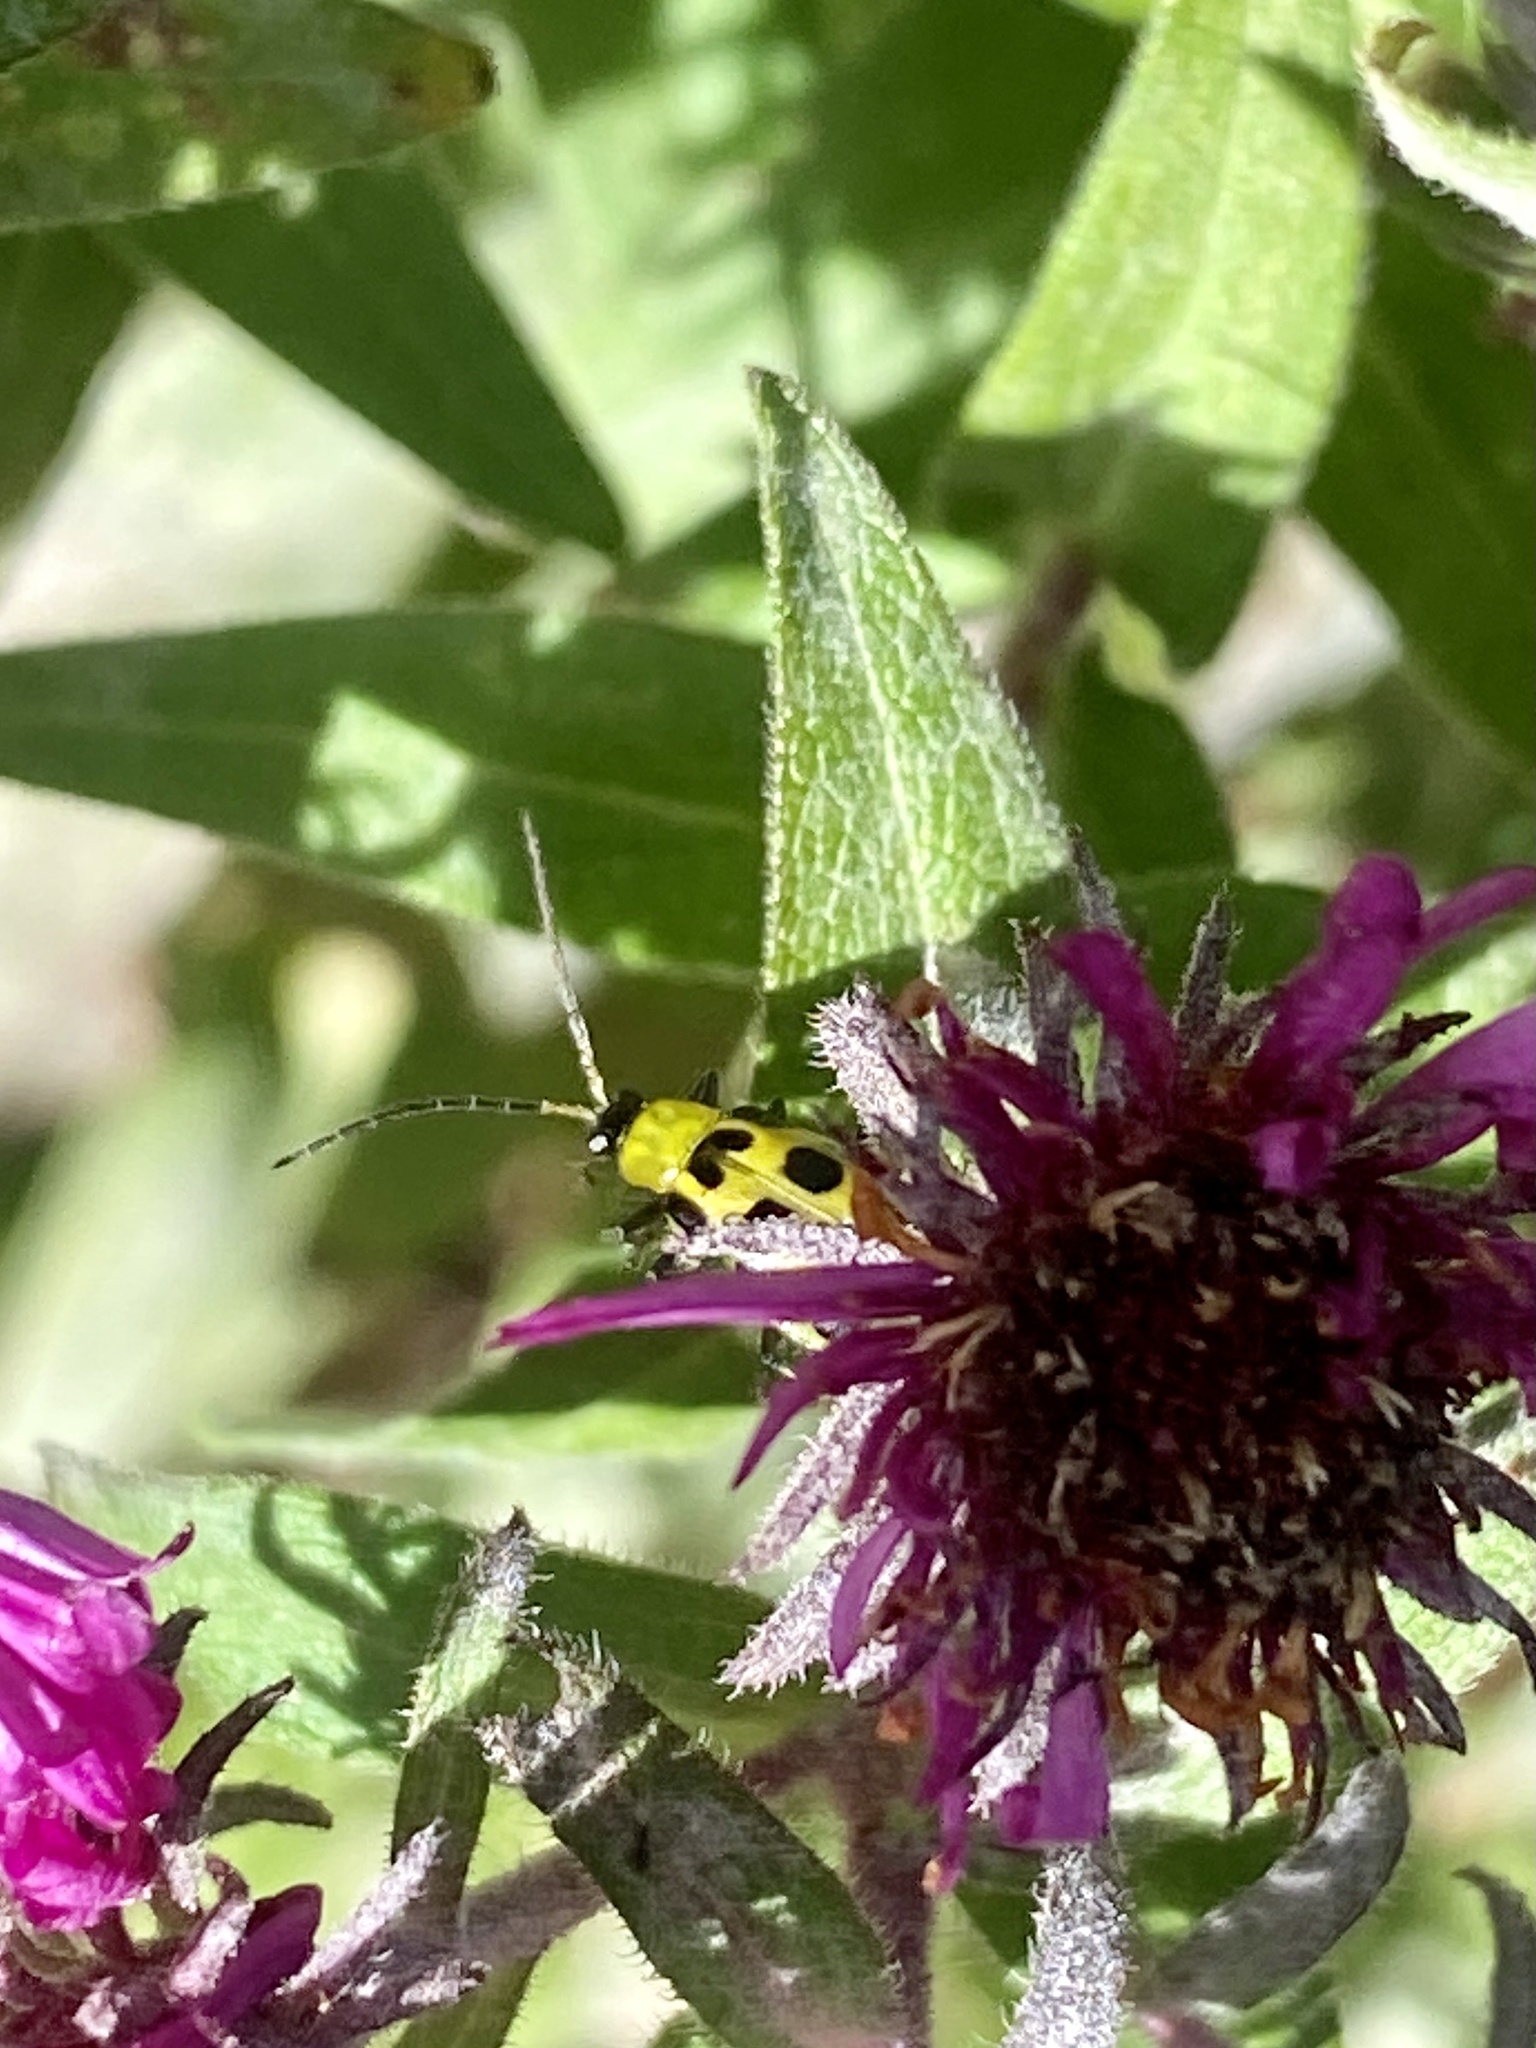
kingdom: Animalia
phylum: Arthropoda
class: Insecta
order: Coleoptera
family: Chrysomelidae
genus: Diabrotica
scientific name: Diabrotica undecimpunctata
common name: Spotted cucumber beetle
